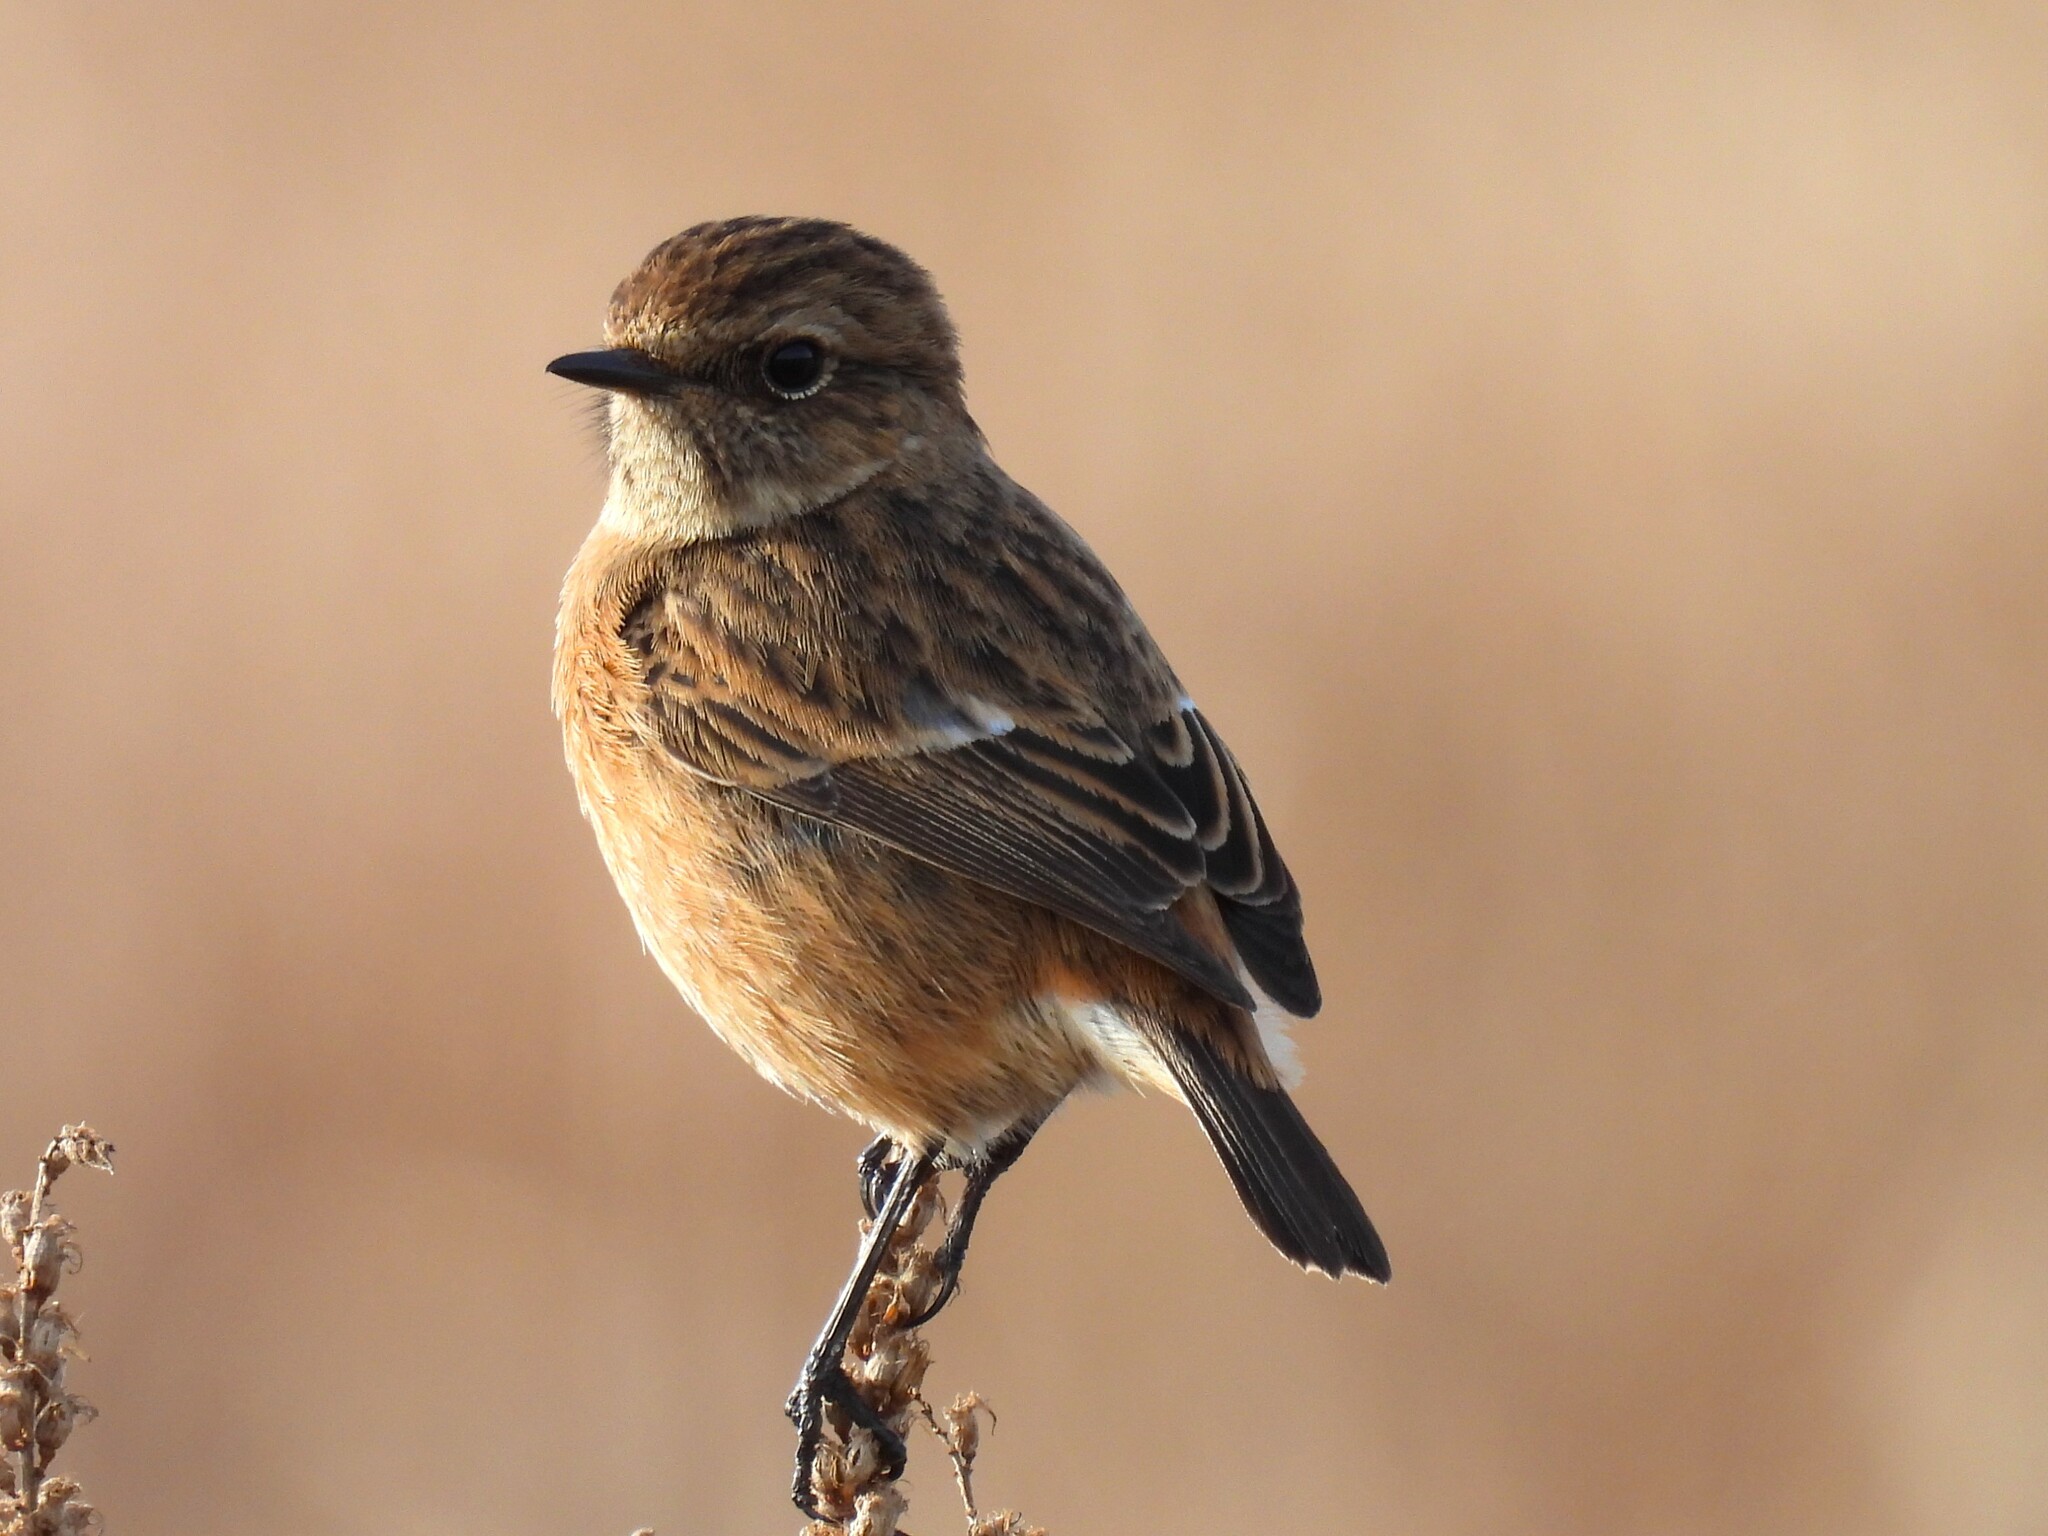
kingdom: Animalia
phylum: Chordata
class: Aves
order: Passeriformes
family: Muscicapidae
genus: Saxicola
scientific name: Saxicola rubicola
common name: European stonechat
